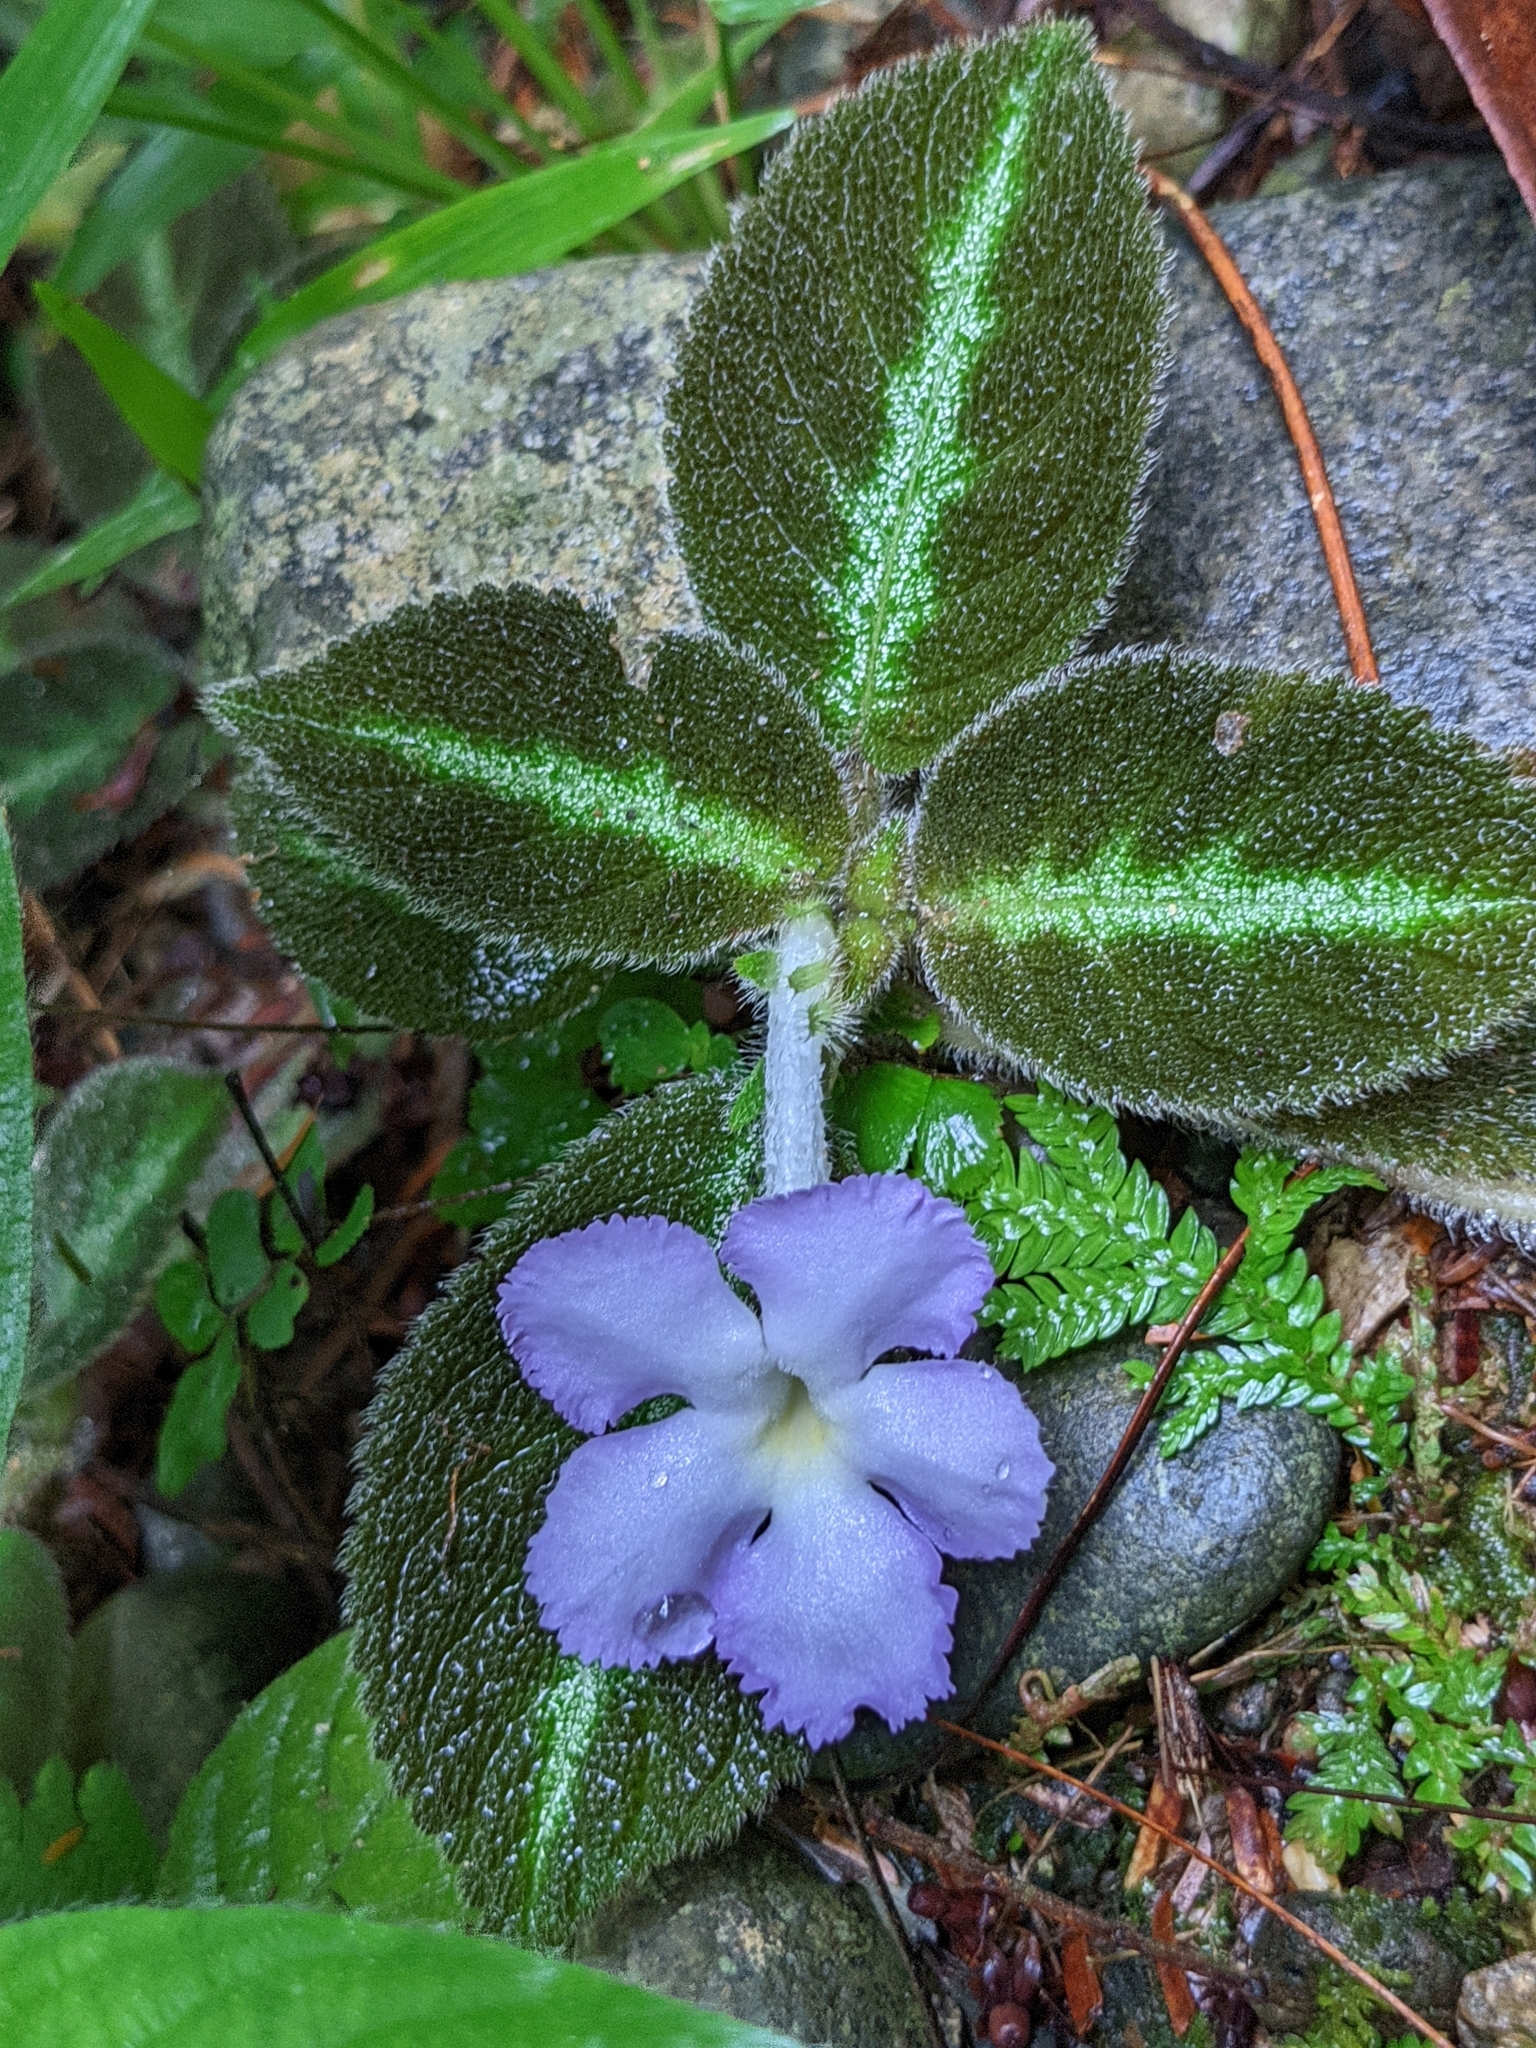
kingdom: Plantae
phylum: Tracheophyta
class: Magnoliopsida
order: Lamiales
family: Gesneriaceae
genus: Episcia
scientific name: Episcia lilacina
